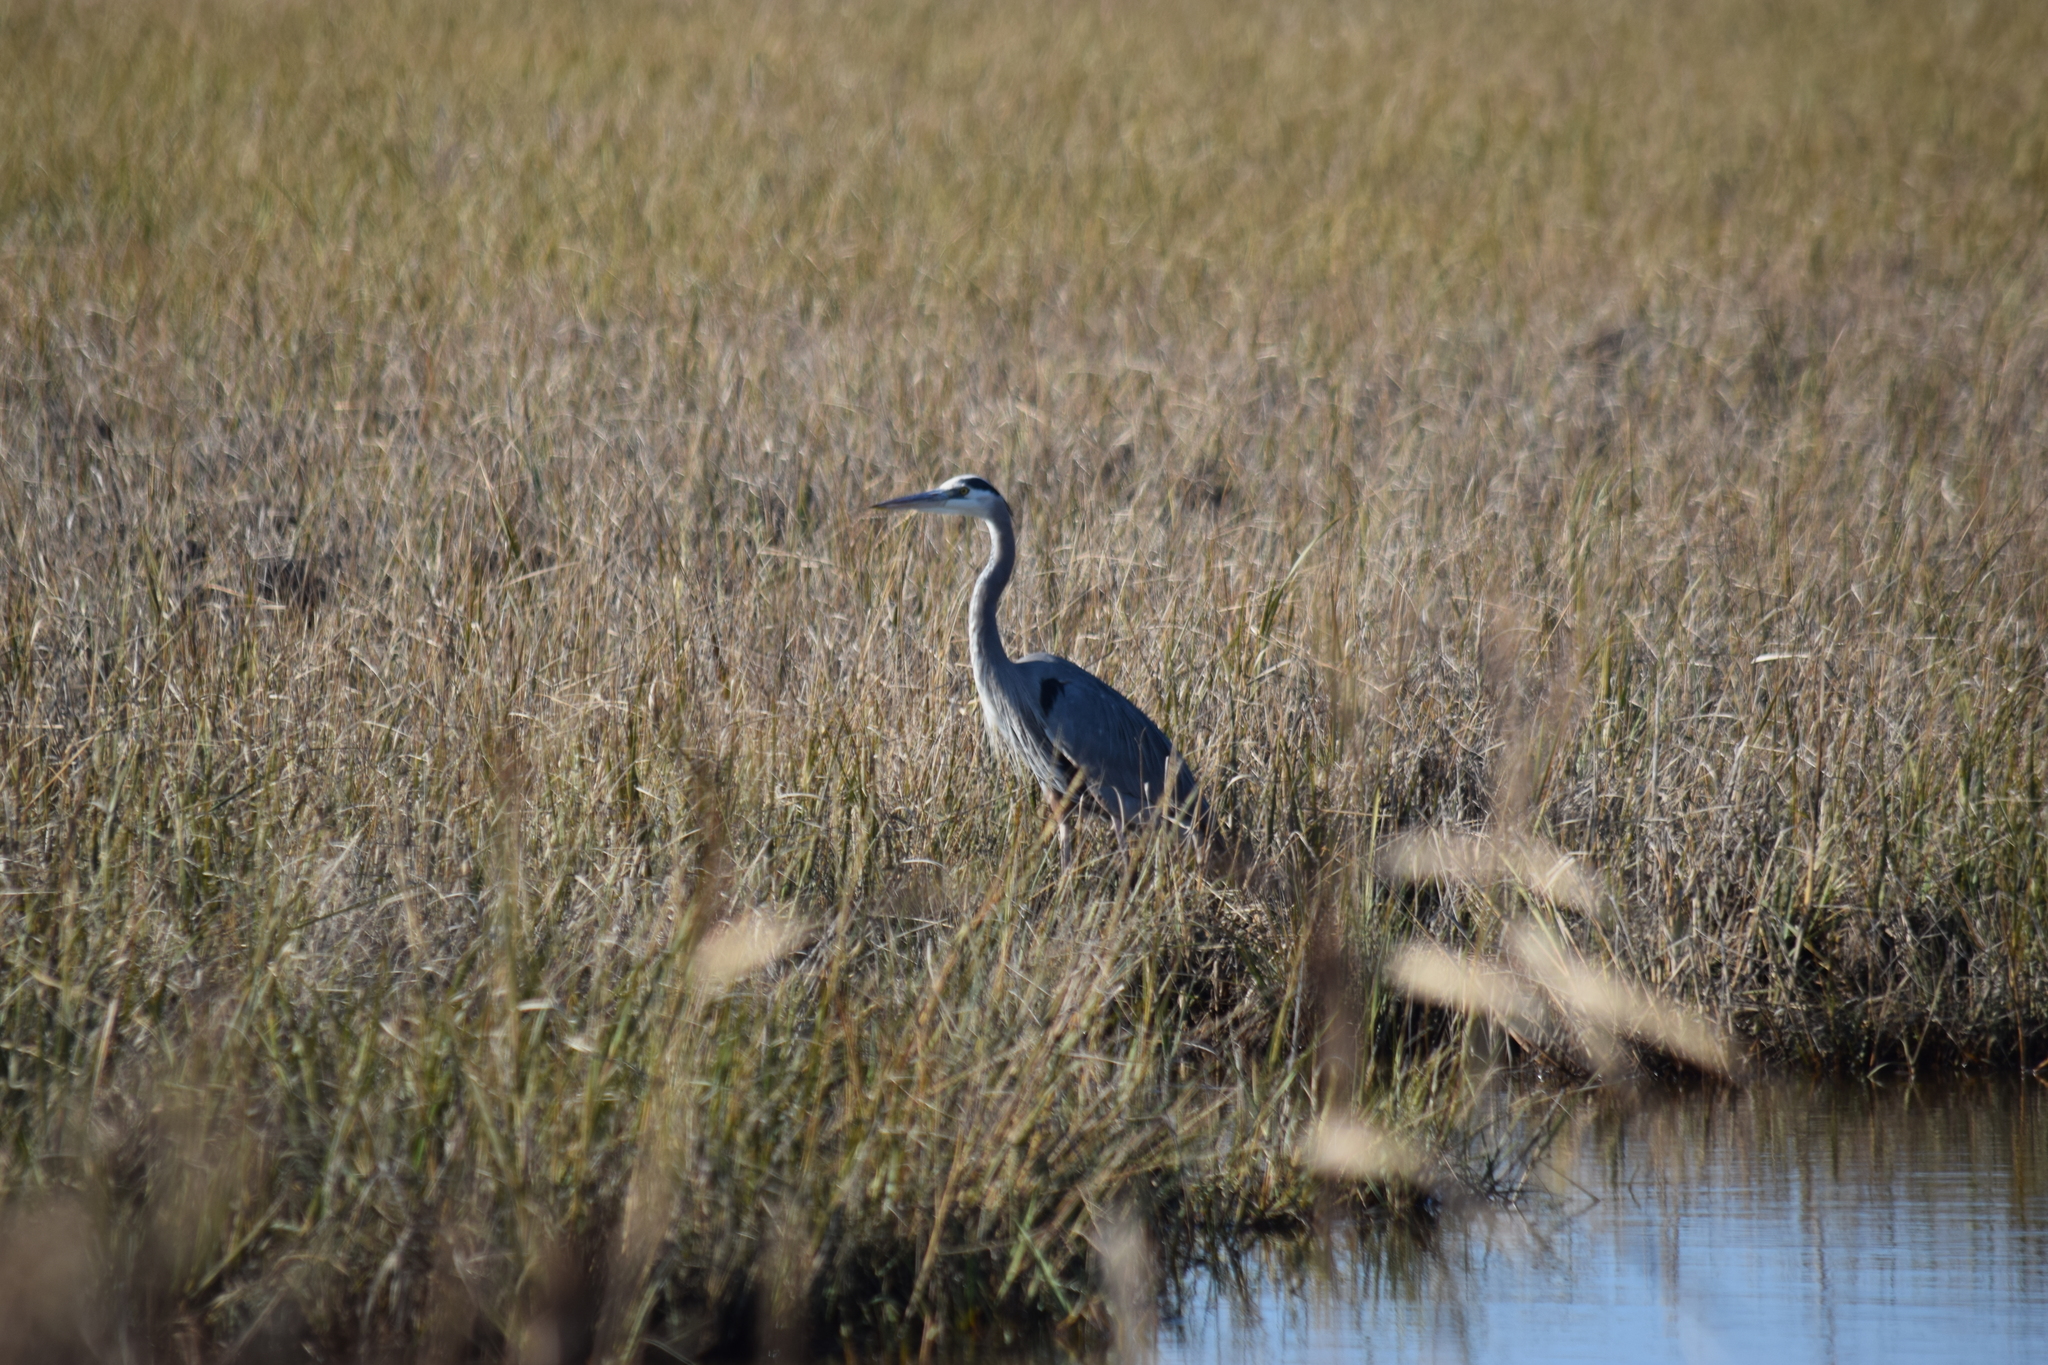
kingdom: Animalia
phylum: Chordata
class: Aves
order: Pelecaniformes
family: Ardeidae
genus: Ardea
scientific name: Ardea herodias
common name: Great blue heron
